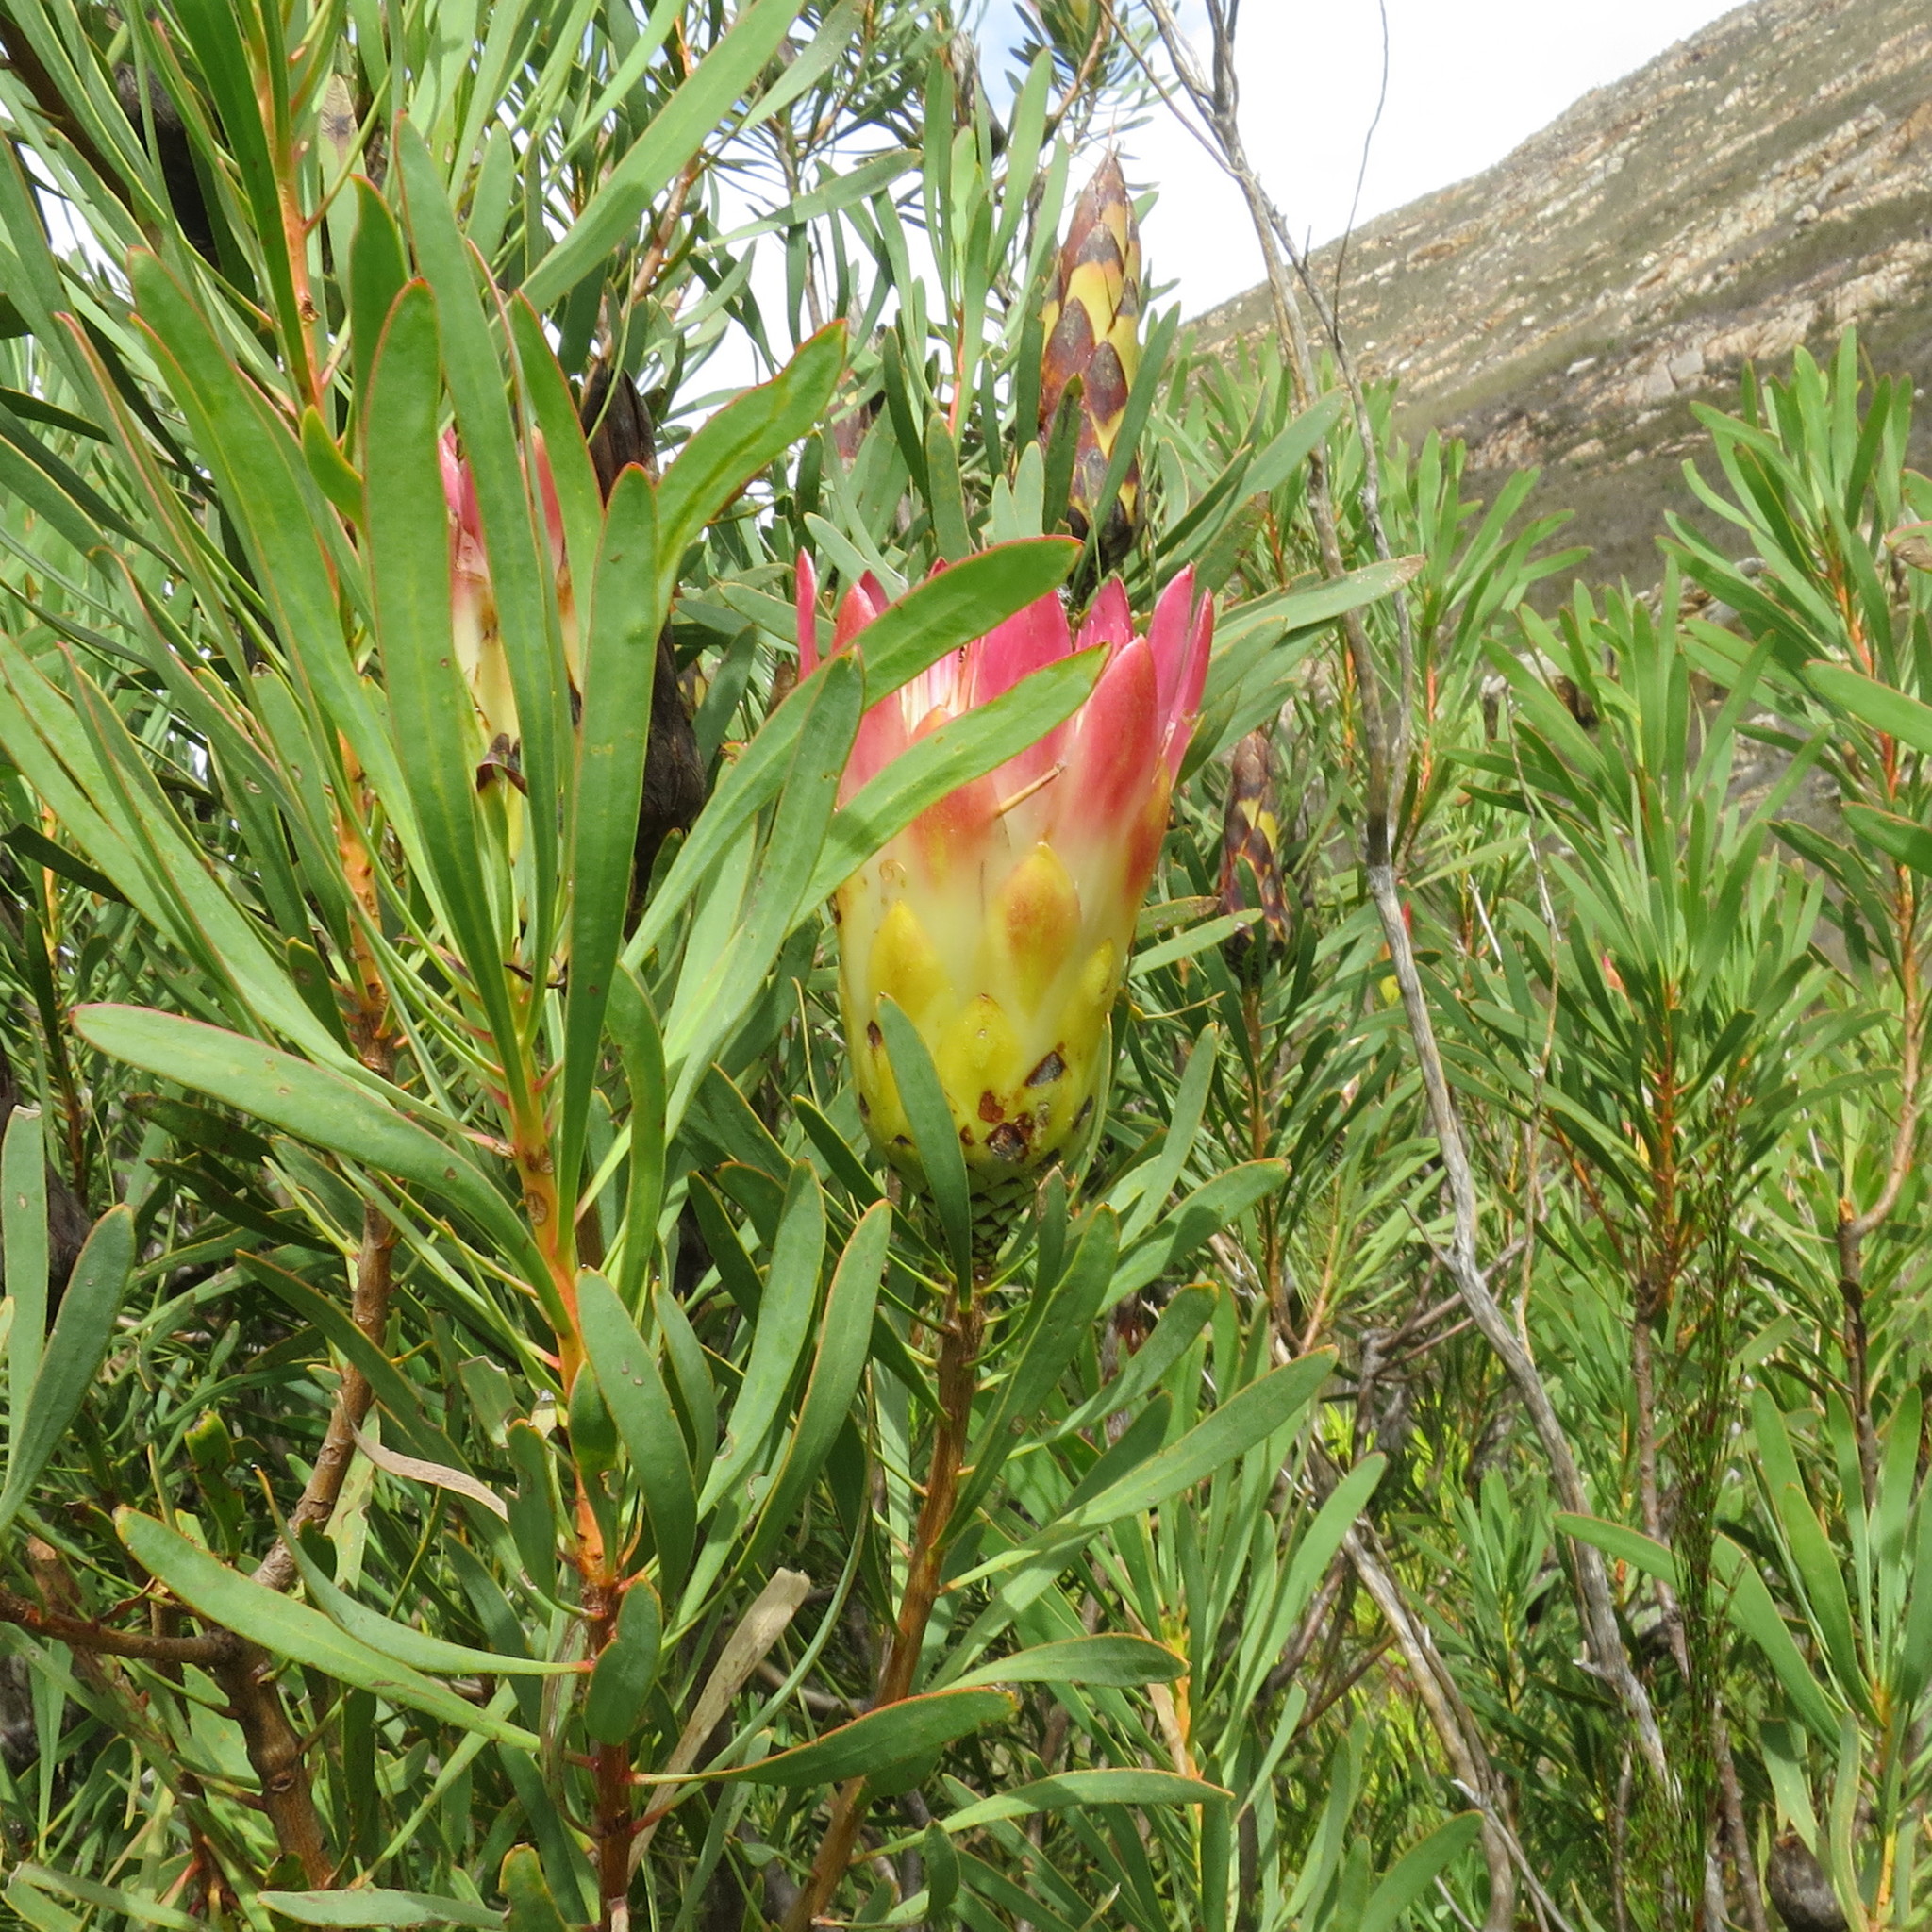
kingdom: Plantae
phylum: Tracheophyta
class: Magnoliopsida
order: Proteales
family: Proteaceae
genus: Protea
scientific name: Protea repens
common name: Sugarbush
